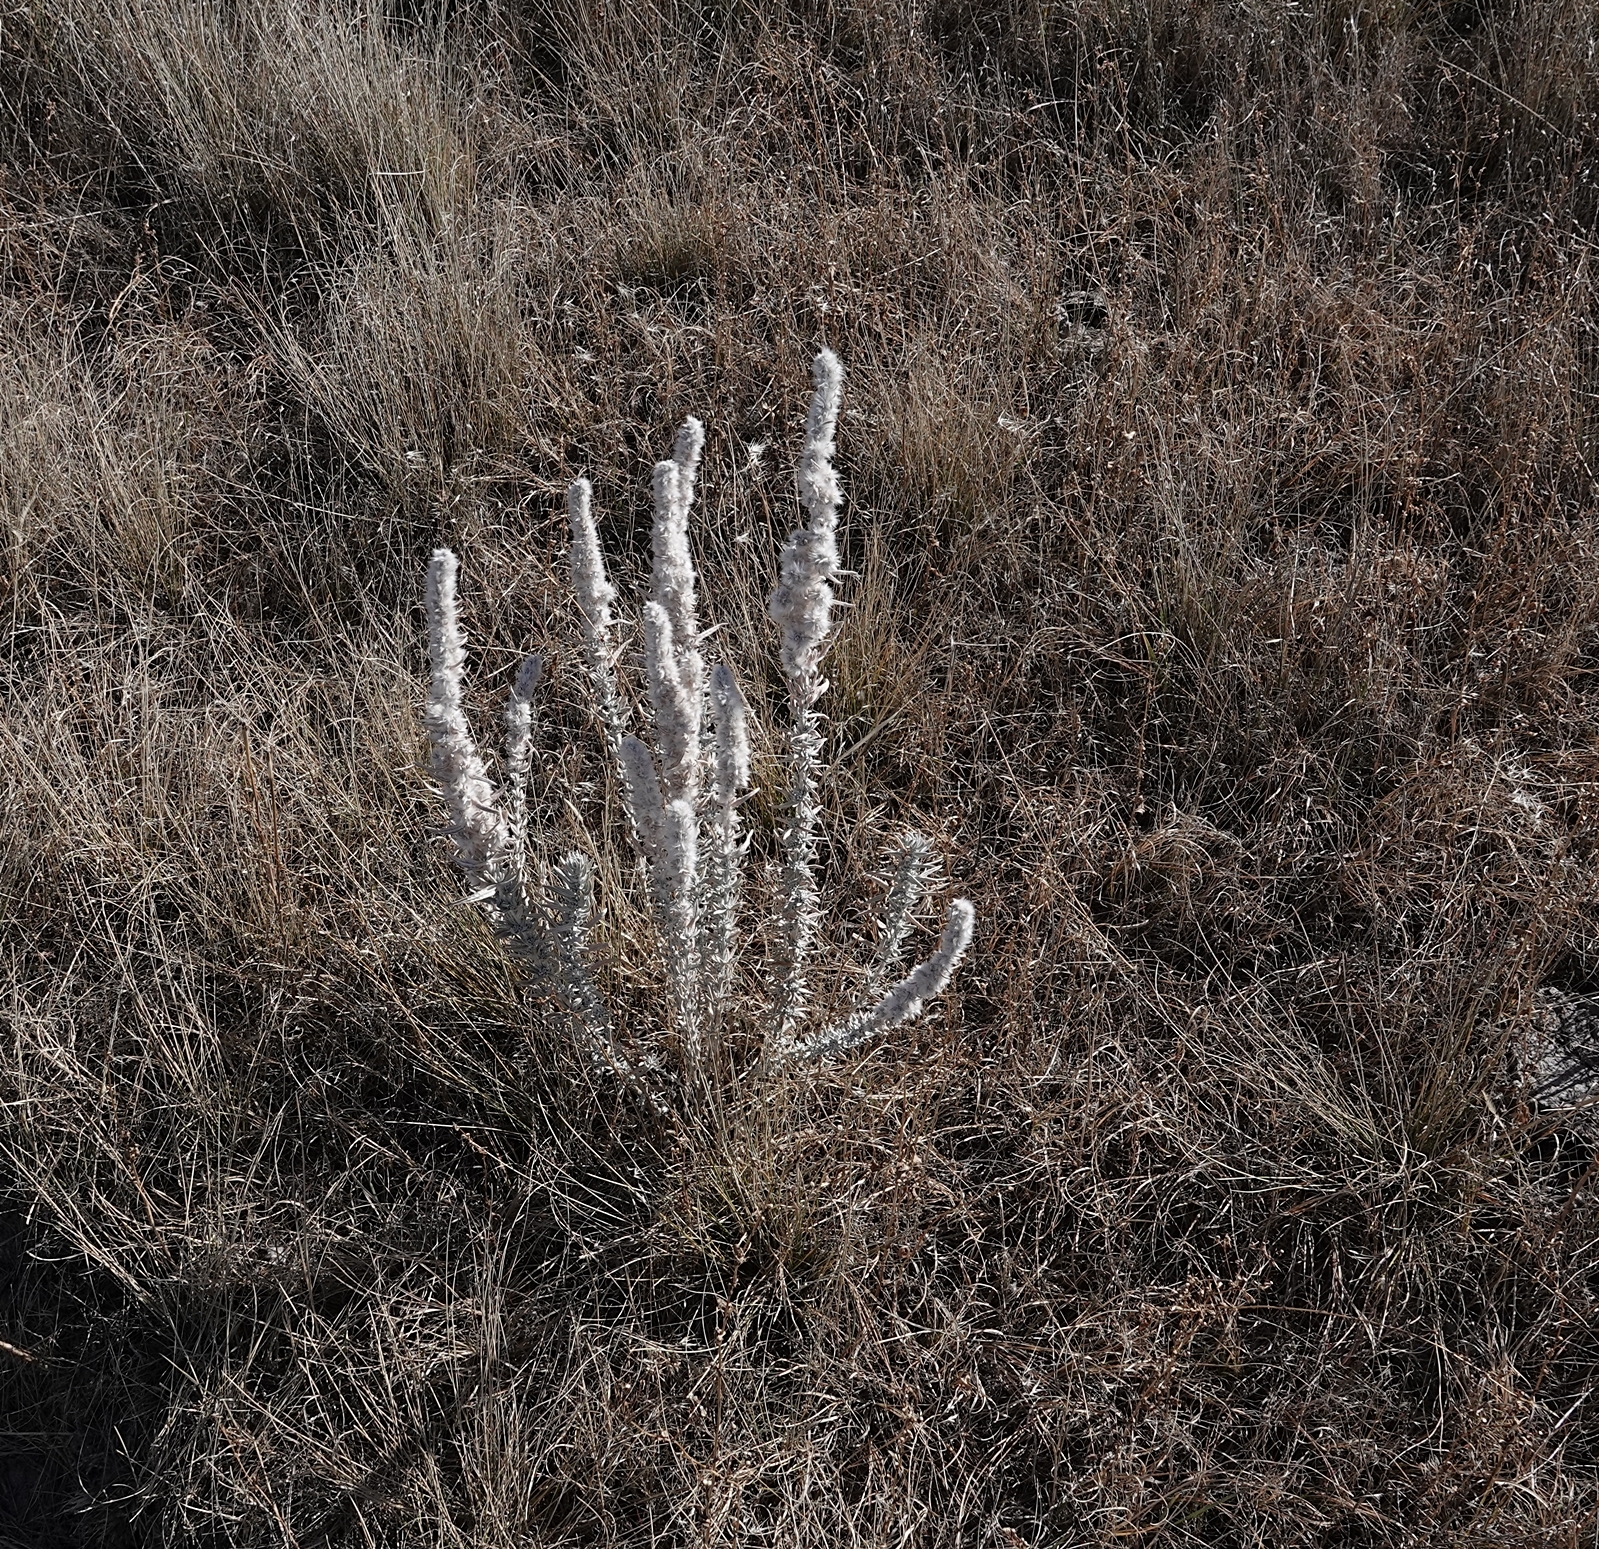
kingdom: Plantae
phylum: Tracheophyta
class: Magnoliopsida
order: Caryophyllales
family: Amaranthaceae
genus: Krascheninnikovia
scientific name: Krascheninnikovia lanata
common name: Winterfat
